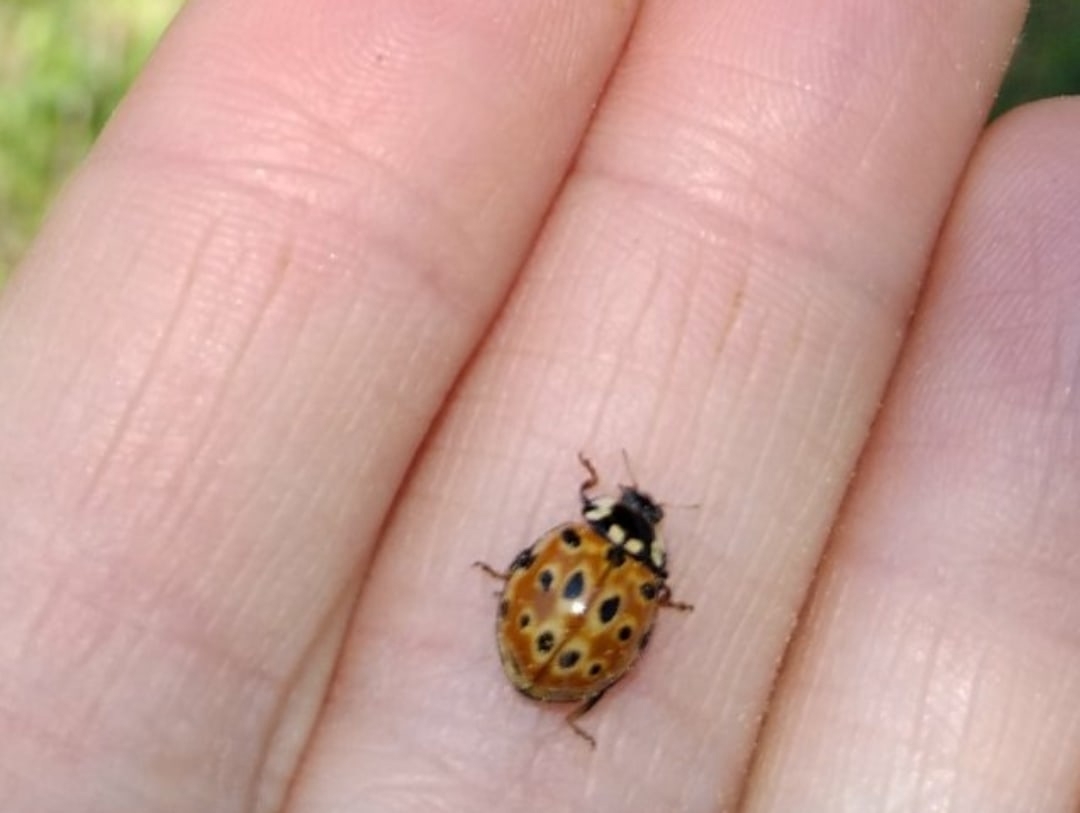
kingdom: Animalia
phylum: Arthropoda
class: Insecta
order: Coleoptera
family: Coccinellidae
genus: Anatis
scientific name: Anatis ocellata
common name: Eyed ladybird
